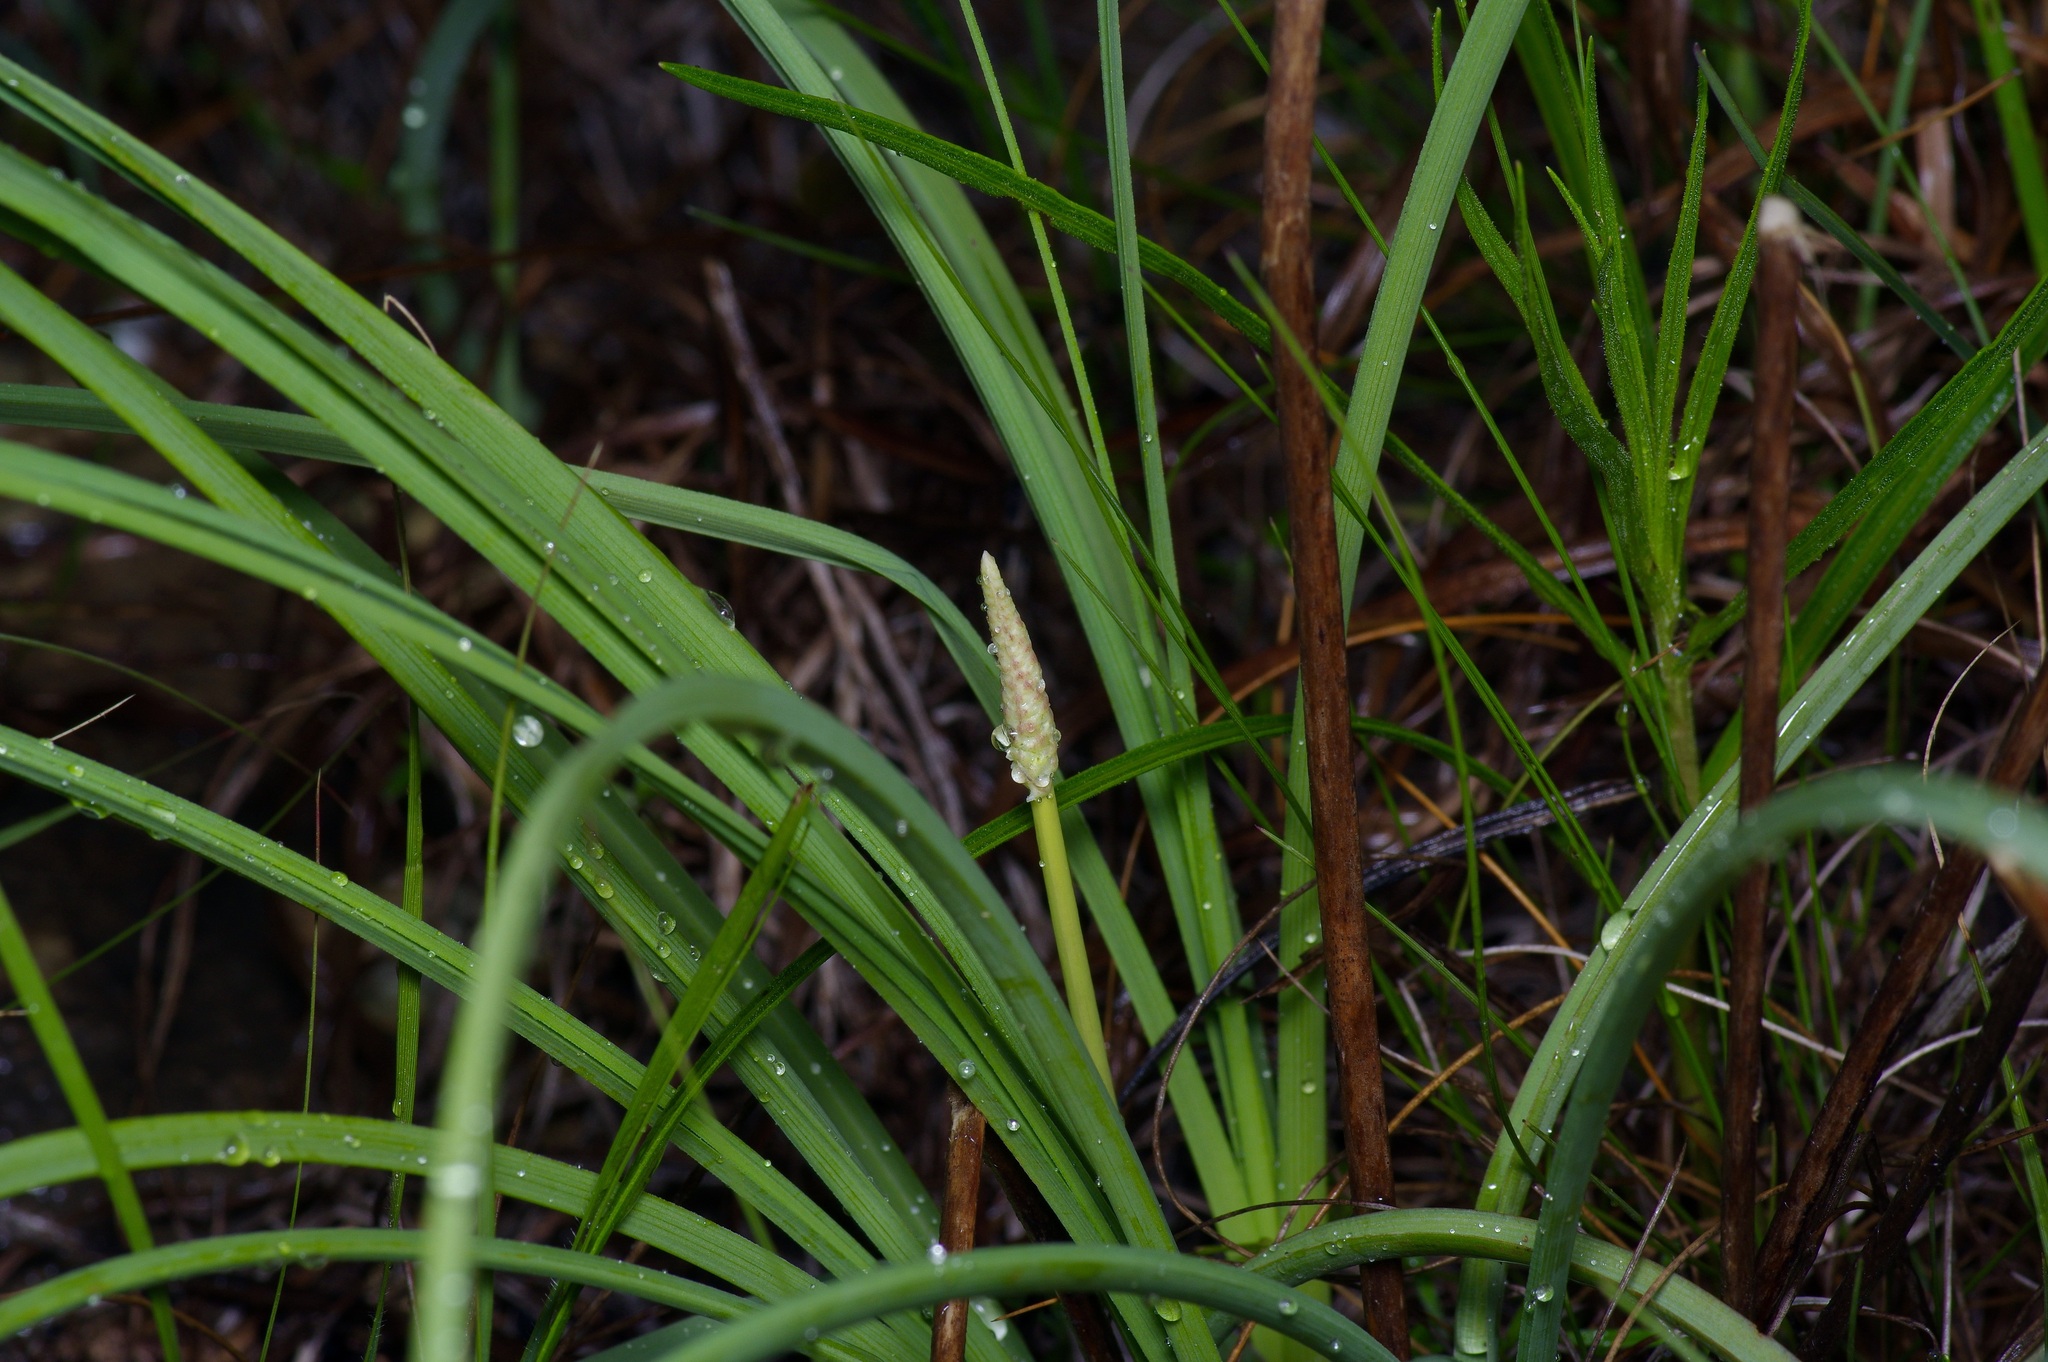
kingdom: Plantae
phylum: Tracheophyta
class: Liliopsida
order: Liliales
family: Melanthiaceae
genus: Schoenocaulon
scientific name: Schoenocaulon texanum
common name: Texas feather-shank
